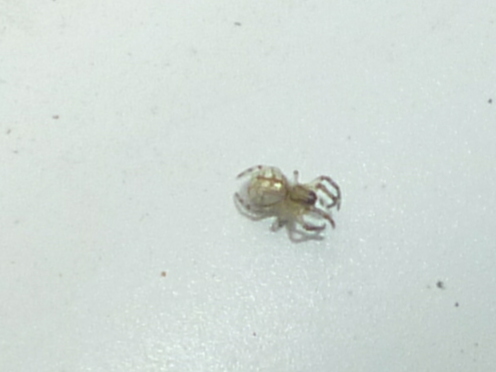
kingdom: Animalia
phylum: Arthropoda
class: Arachnida
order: Araneae
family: Tetragnathidae
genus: Leucauge
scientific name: Leucauge venusta
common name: Longjawed orb weavers
